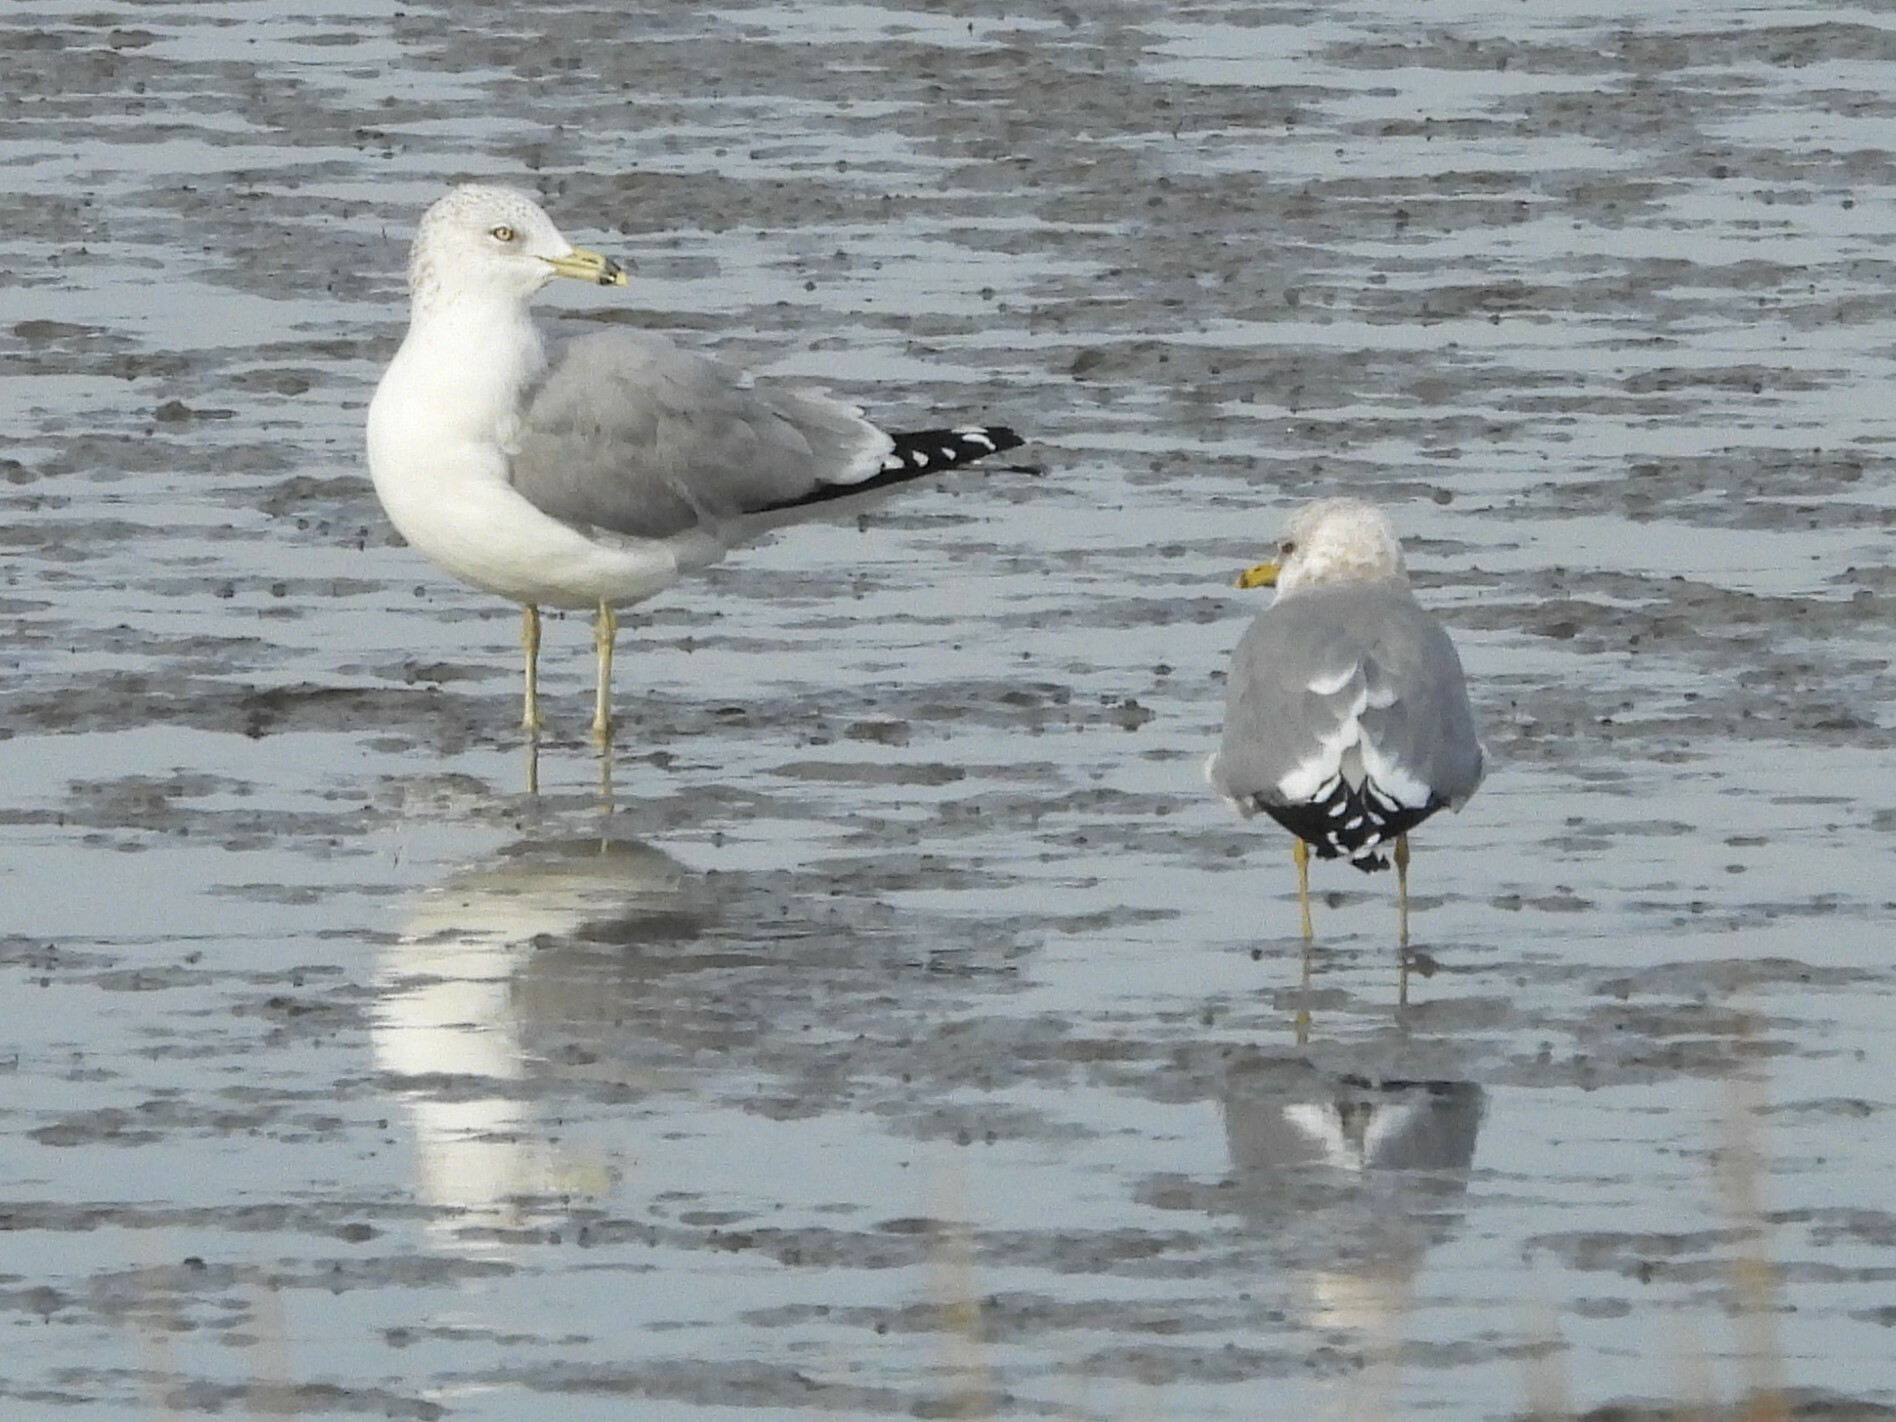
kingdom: Animalia
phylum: Chordata
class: Aves
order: Charadriiformes
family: Laridae
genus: Larus
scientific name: Larus delawarensis
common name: Ring-billed gull
